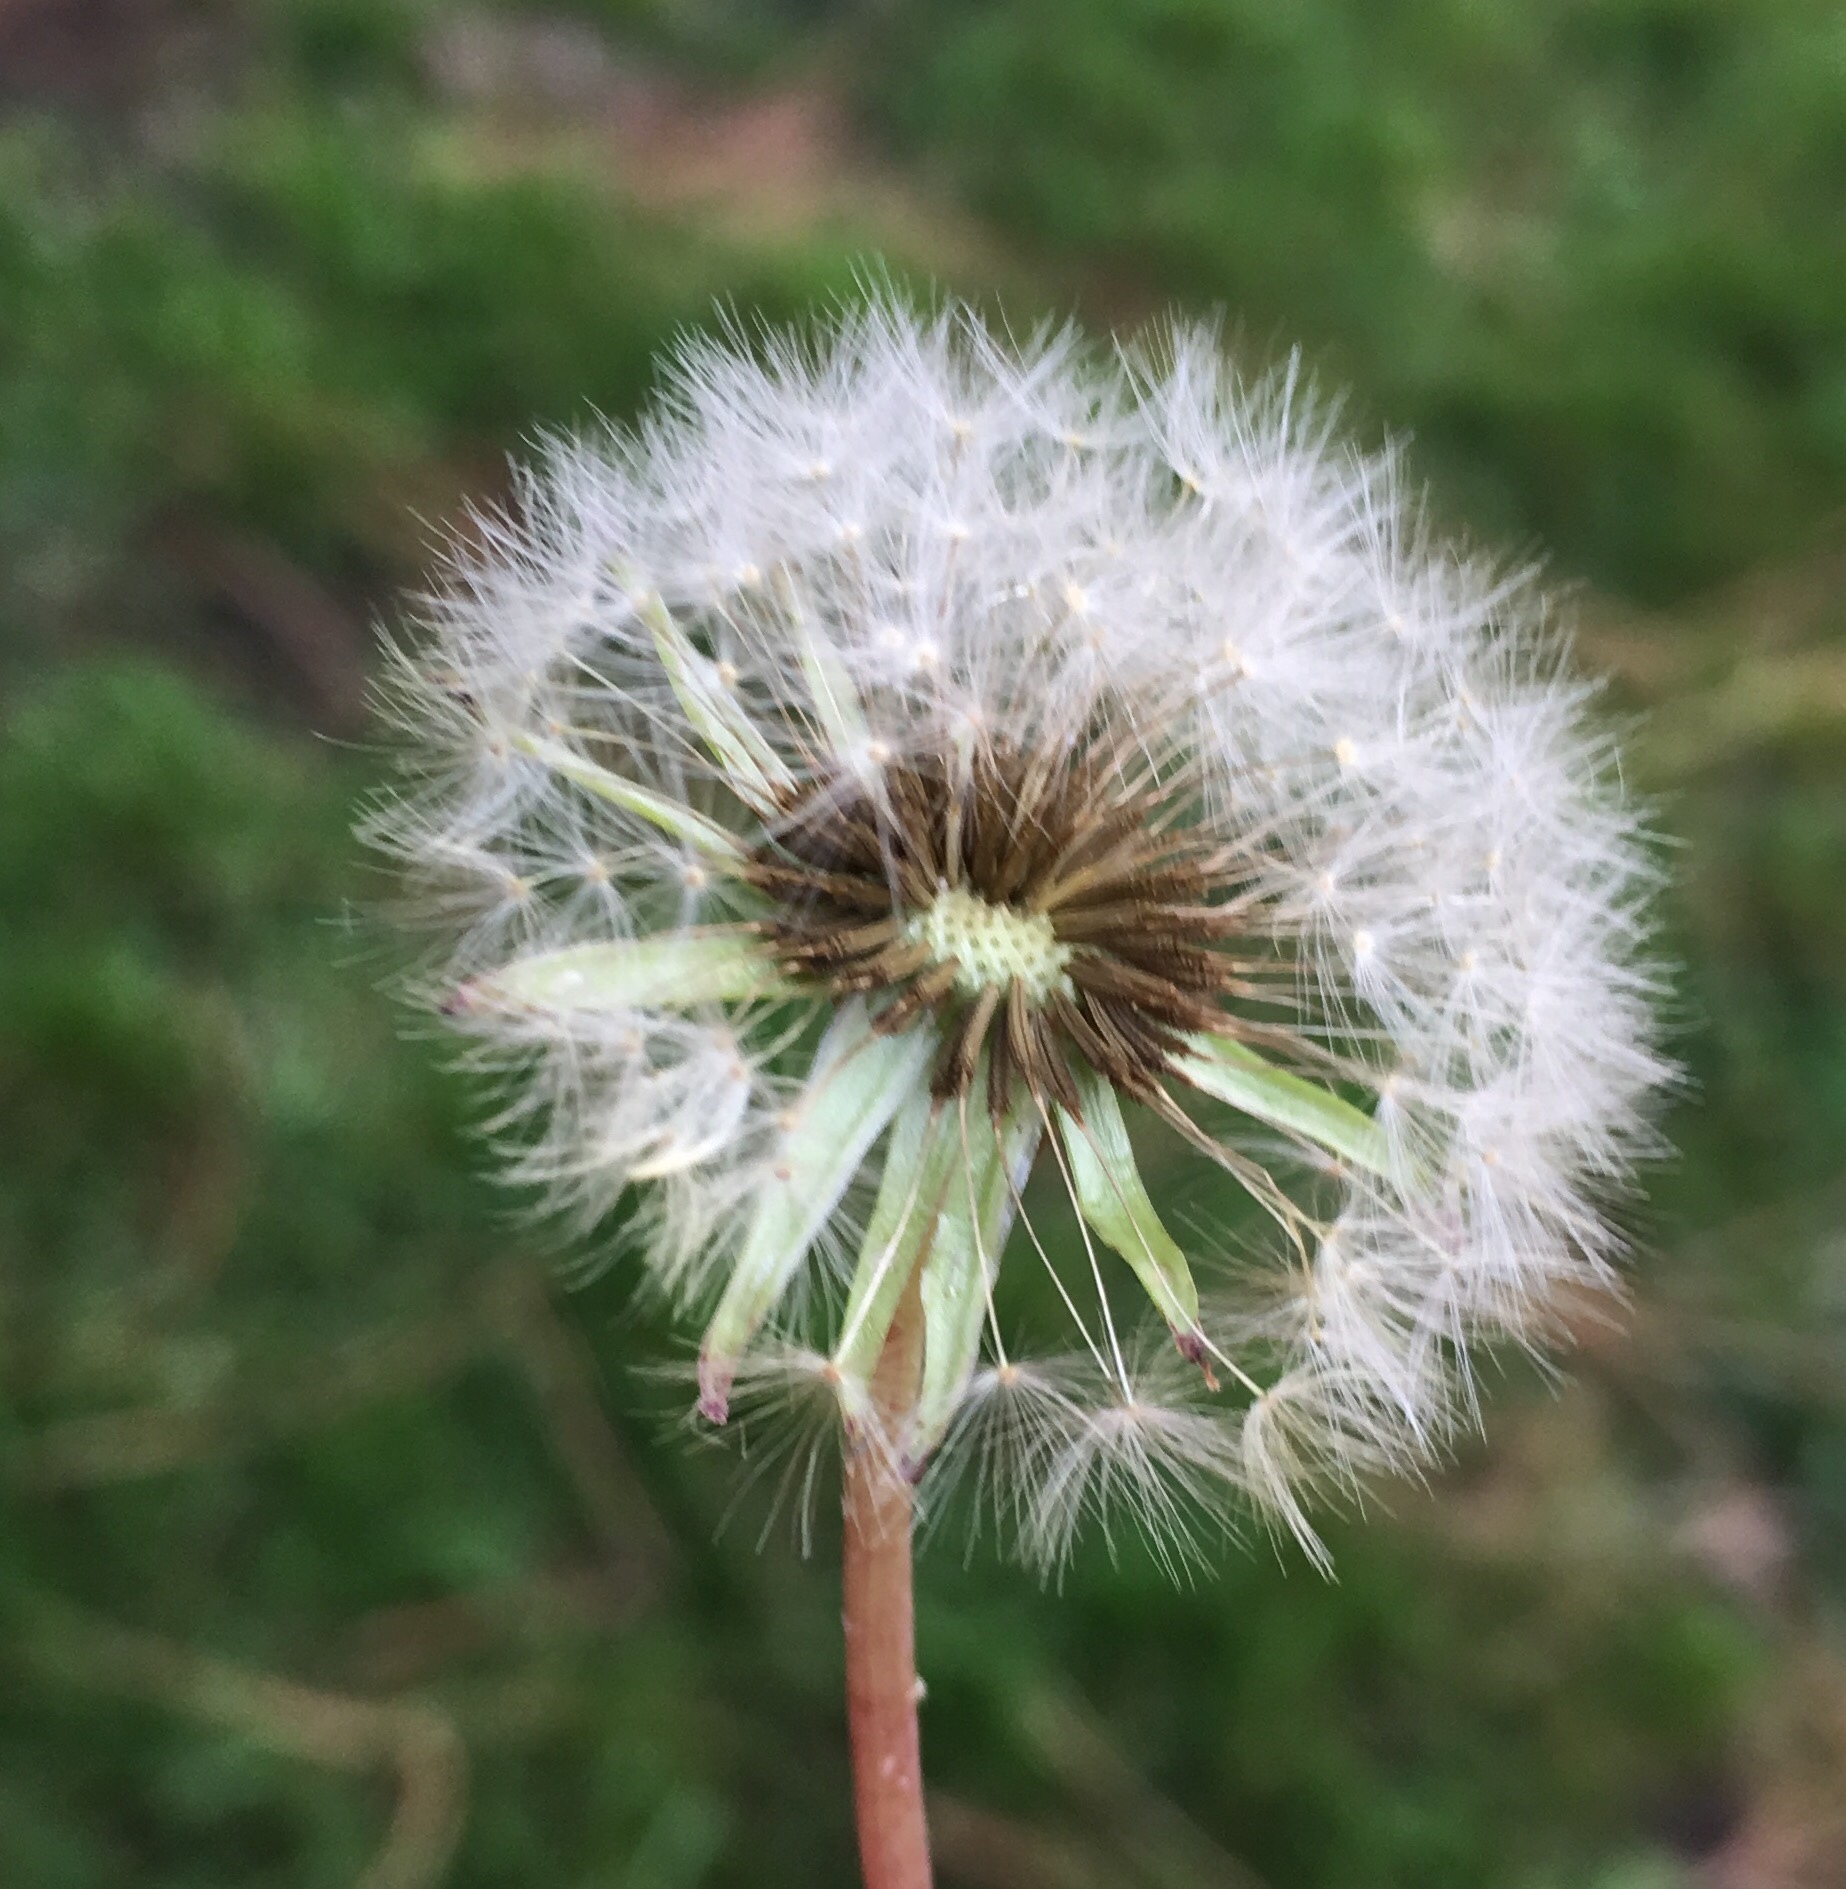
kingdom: Plantae
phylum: Tracheophyta
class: Magnoliopsida
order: Asterales
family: Asteraceae
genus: Taraxacum
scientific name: Taraxacum officinale
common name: Common dandelion
